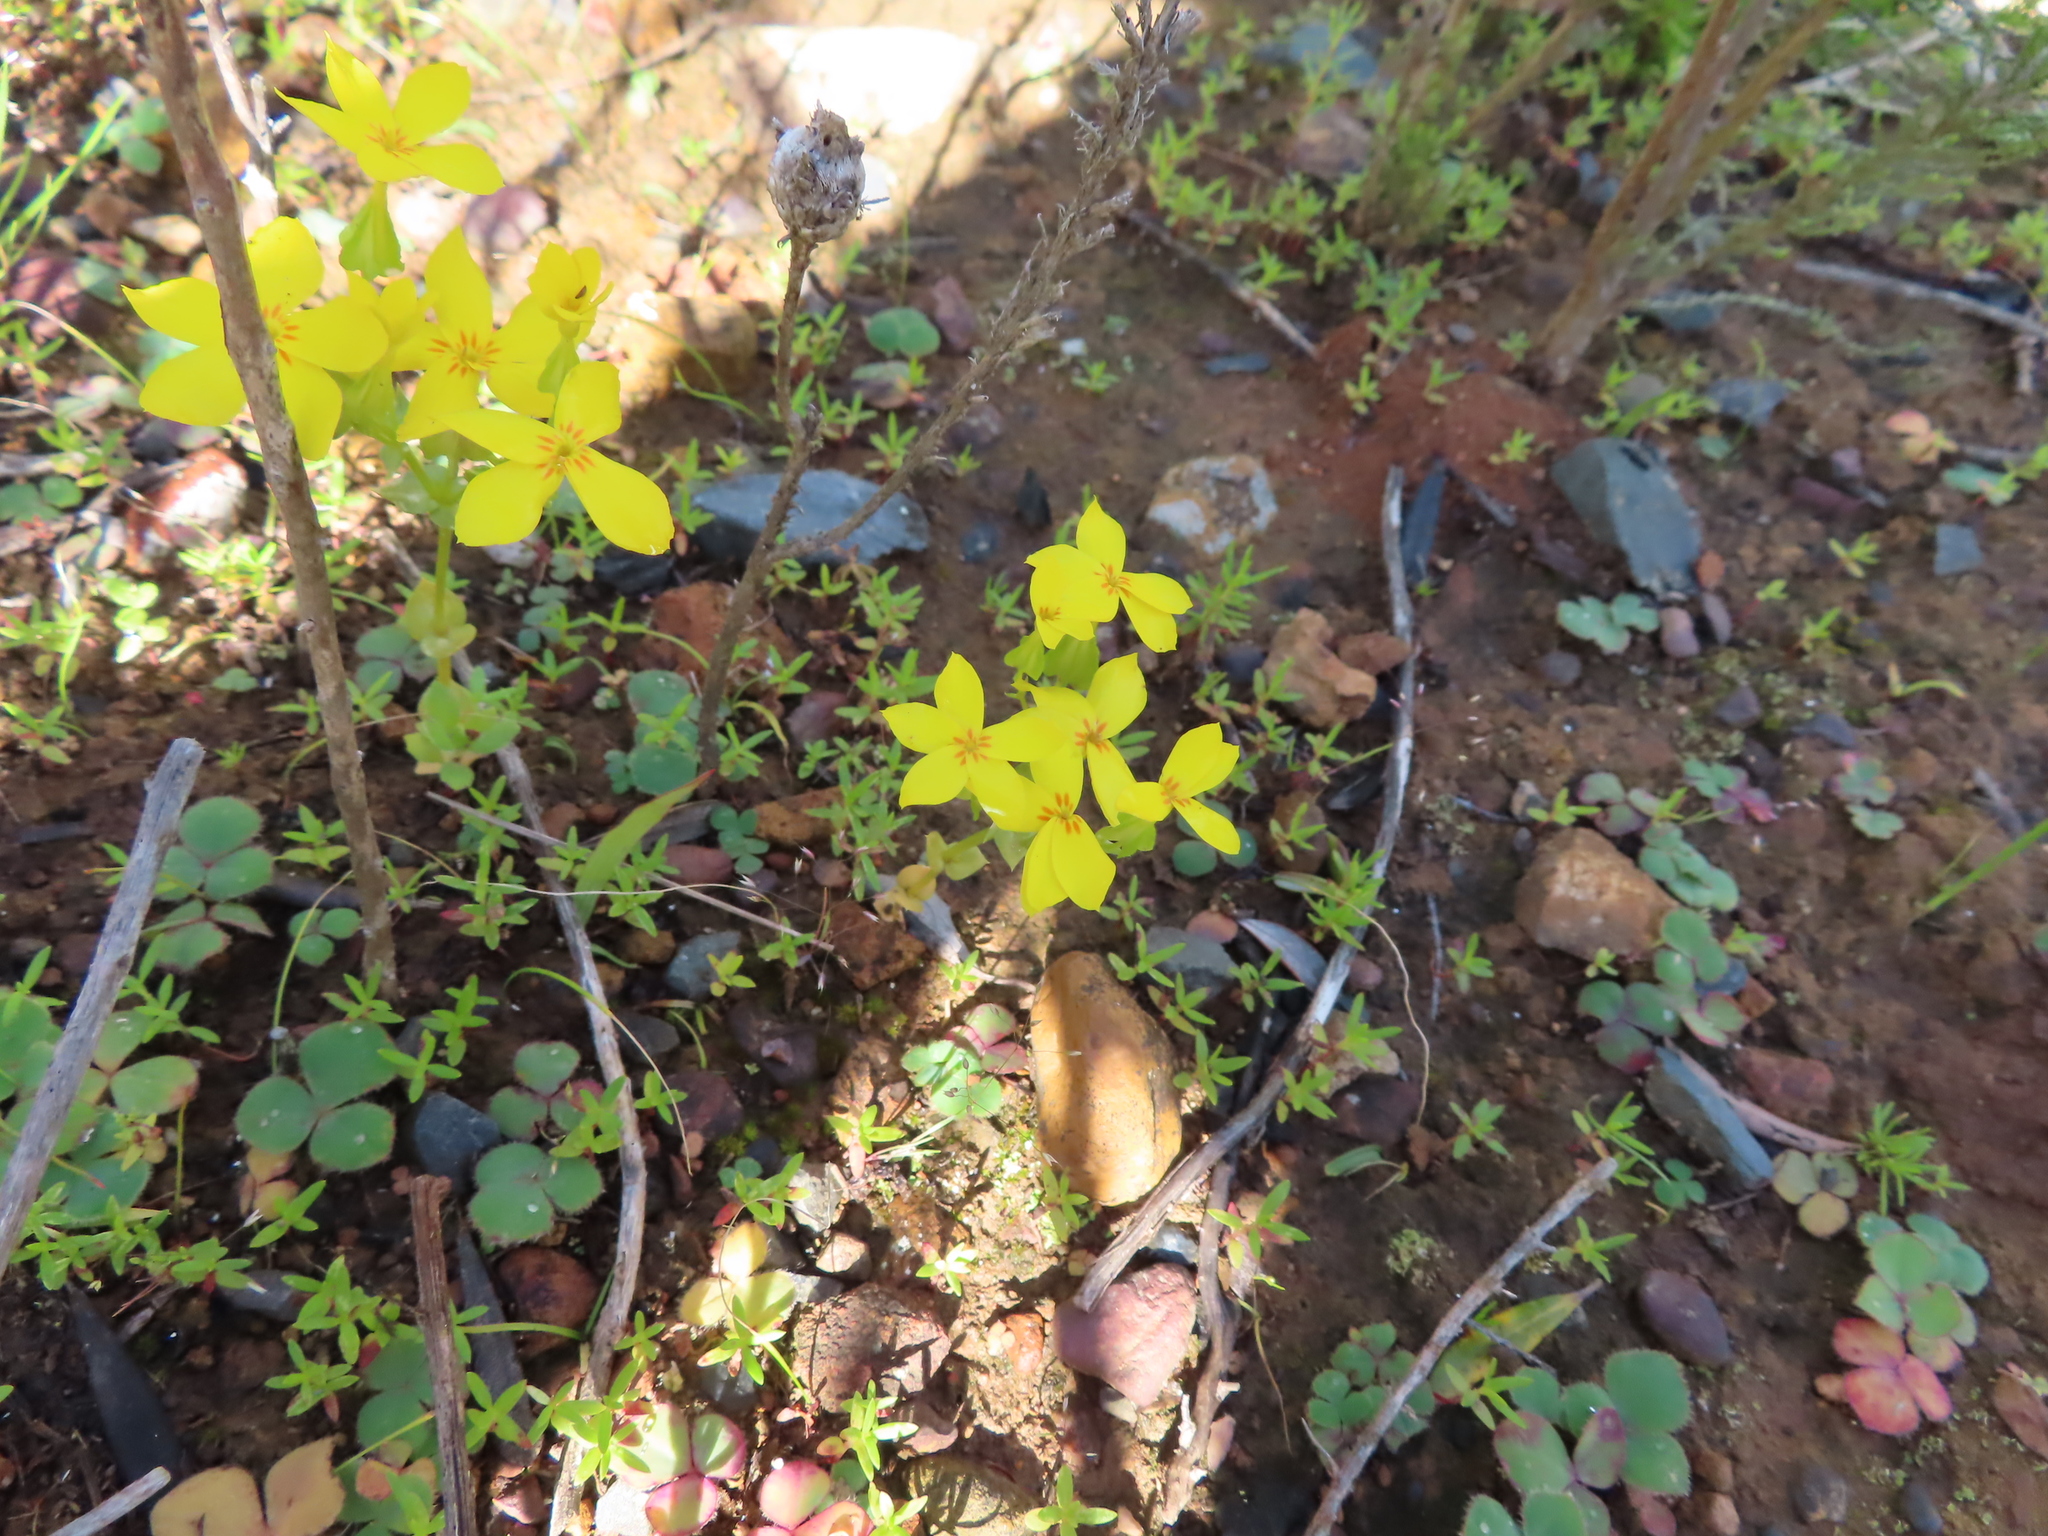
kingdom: Plantae
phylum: Tracheophyta
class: Magnoliopsida
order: Gentianales
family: Gentianaceae
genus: Sebaea
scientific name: Sebaea exacoides
